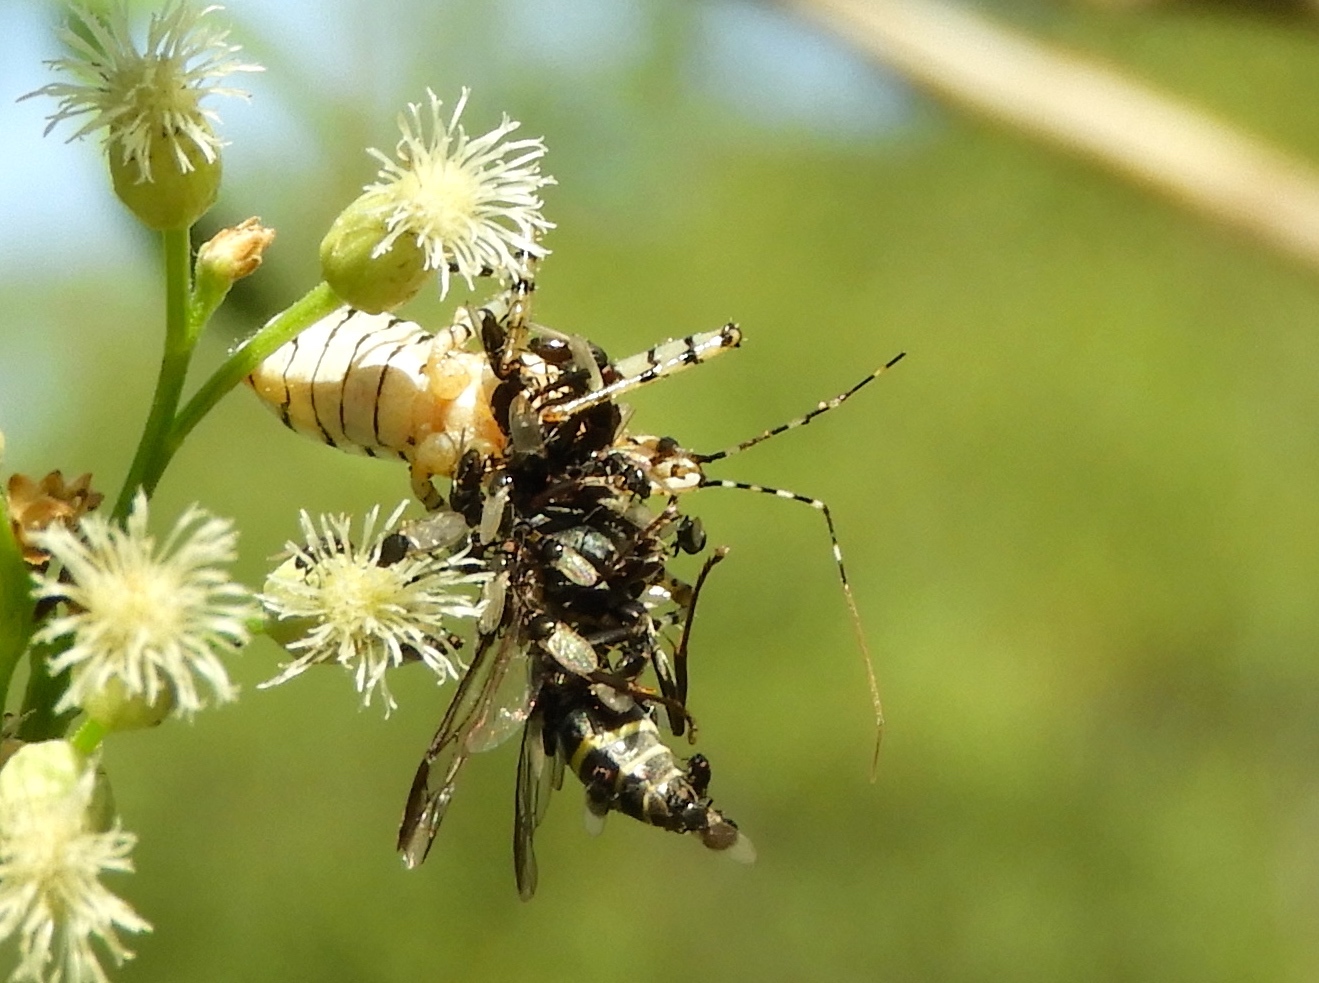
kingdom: Animalia
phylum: Arthropoda
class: Insecta
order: Hemiptera
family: Reduviidae
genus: Pselliopus
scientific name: Pselliopus
